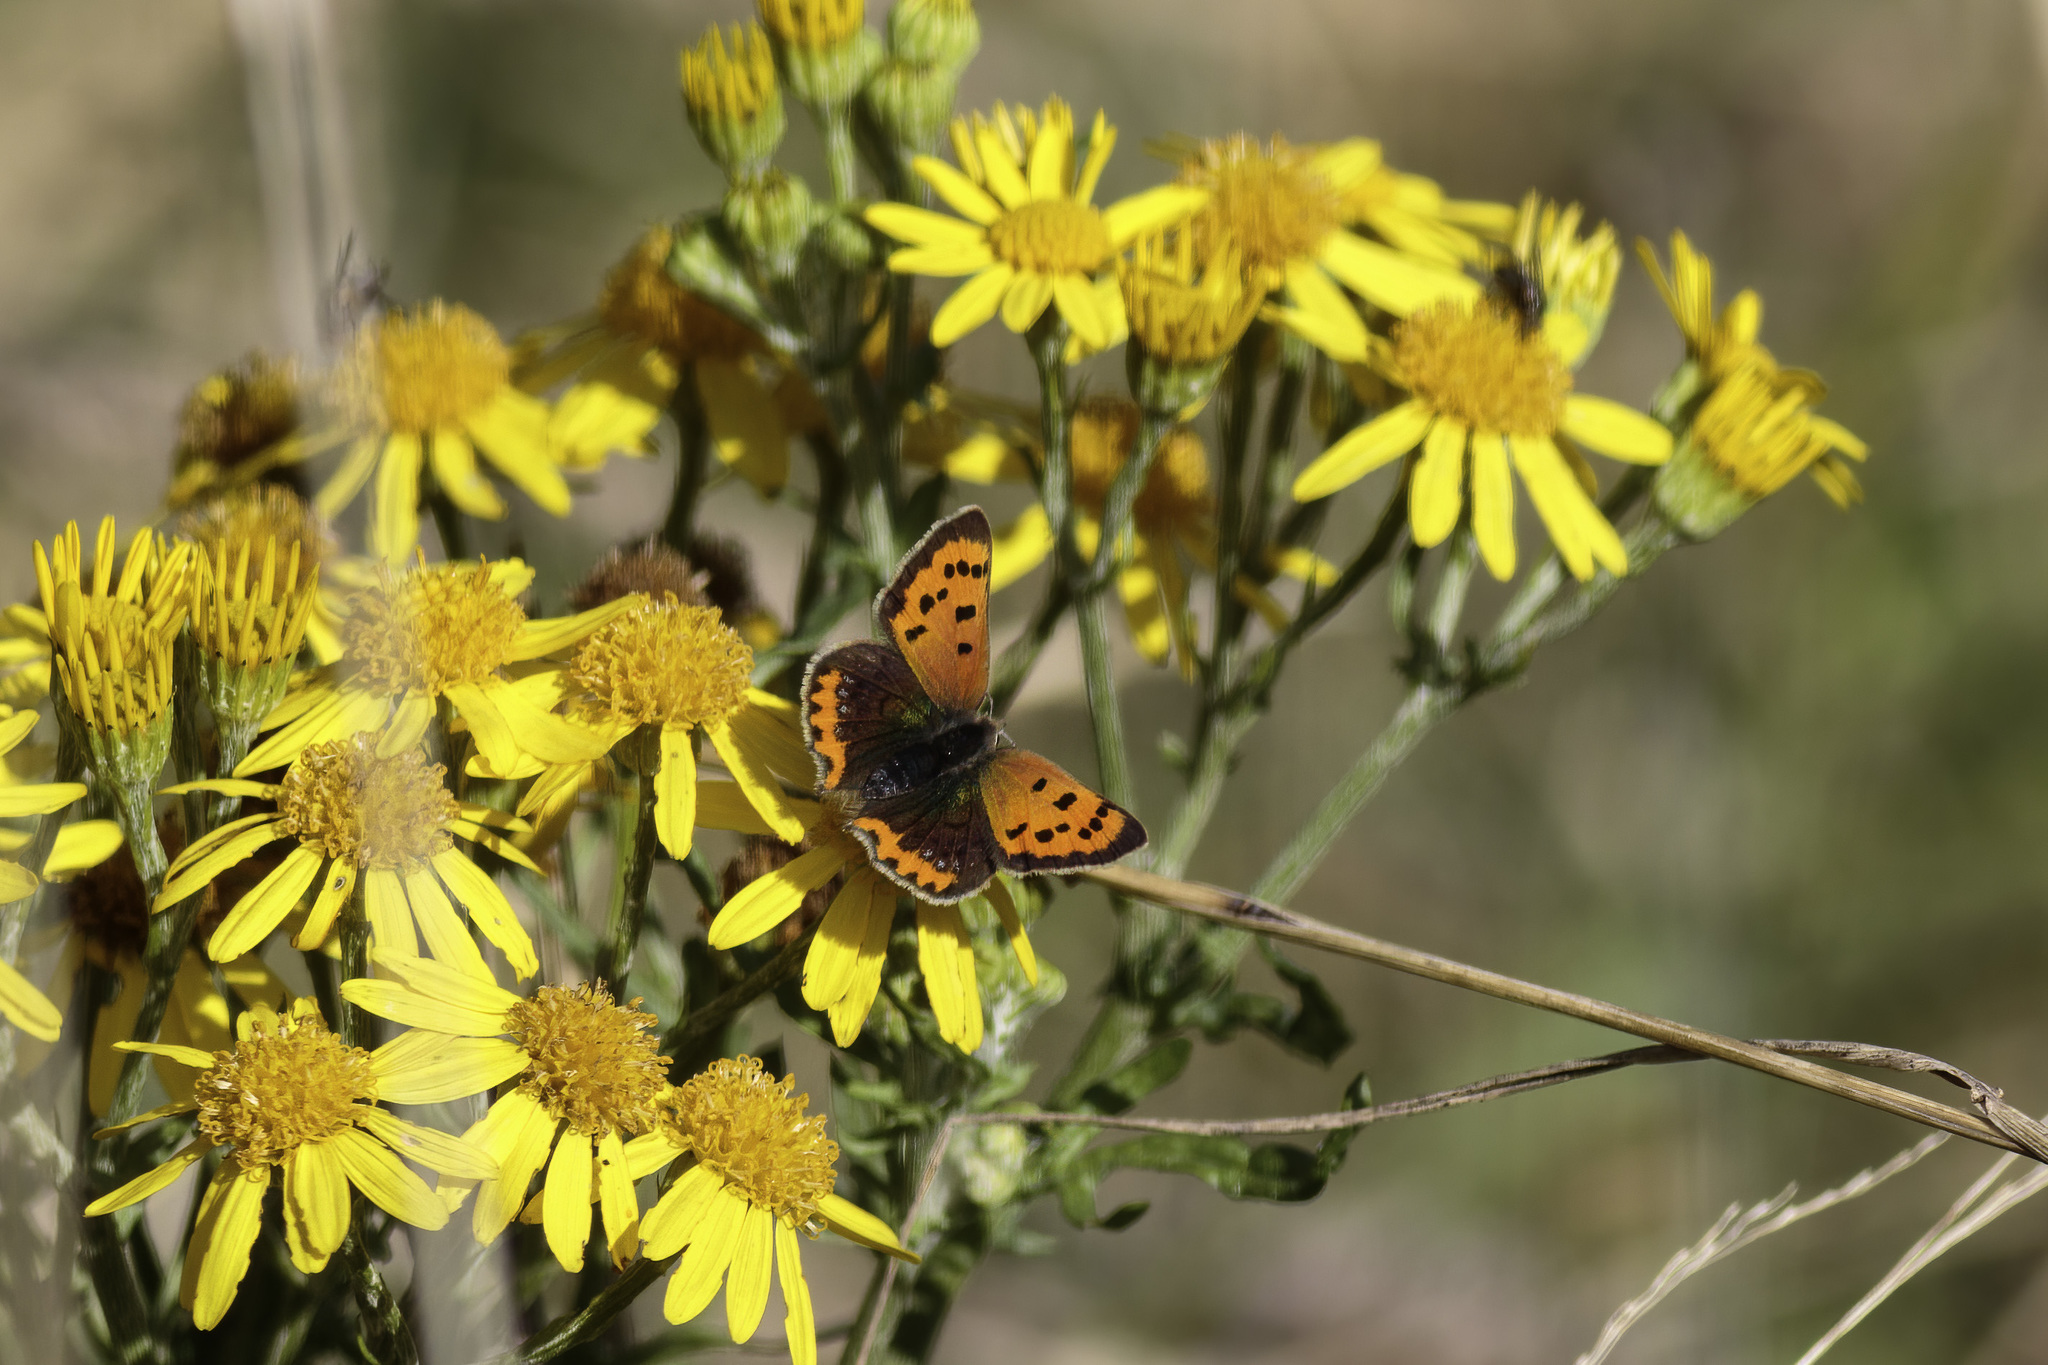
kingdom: Animalia
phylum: Arthropoda
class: Insecta
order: Lepidoptera
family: Lycaenidae
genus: Lycaena
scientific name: Lycaena phlaeas
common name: Small copper
